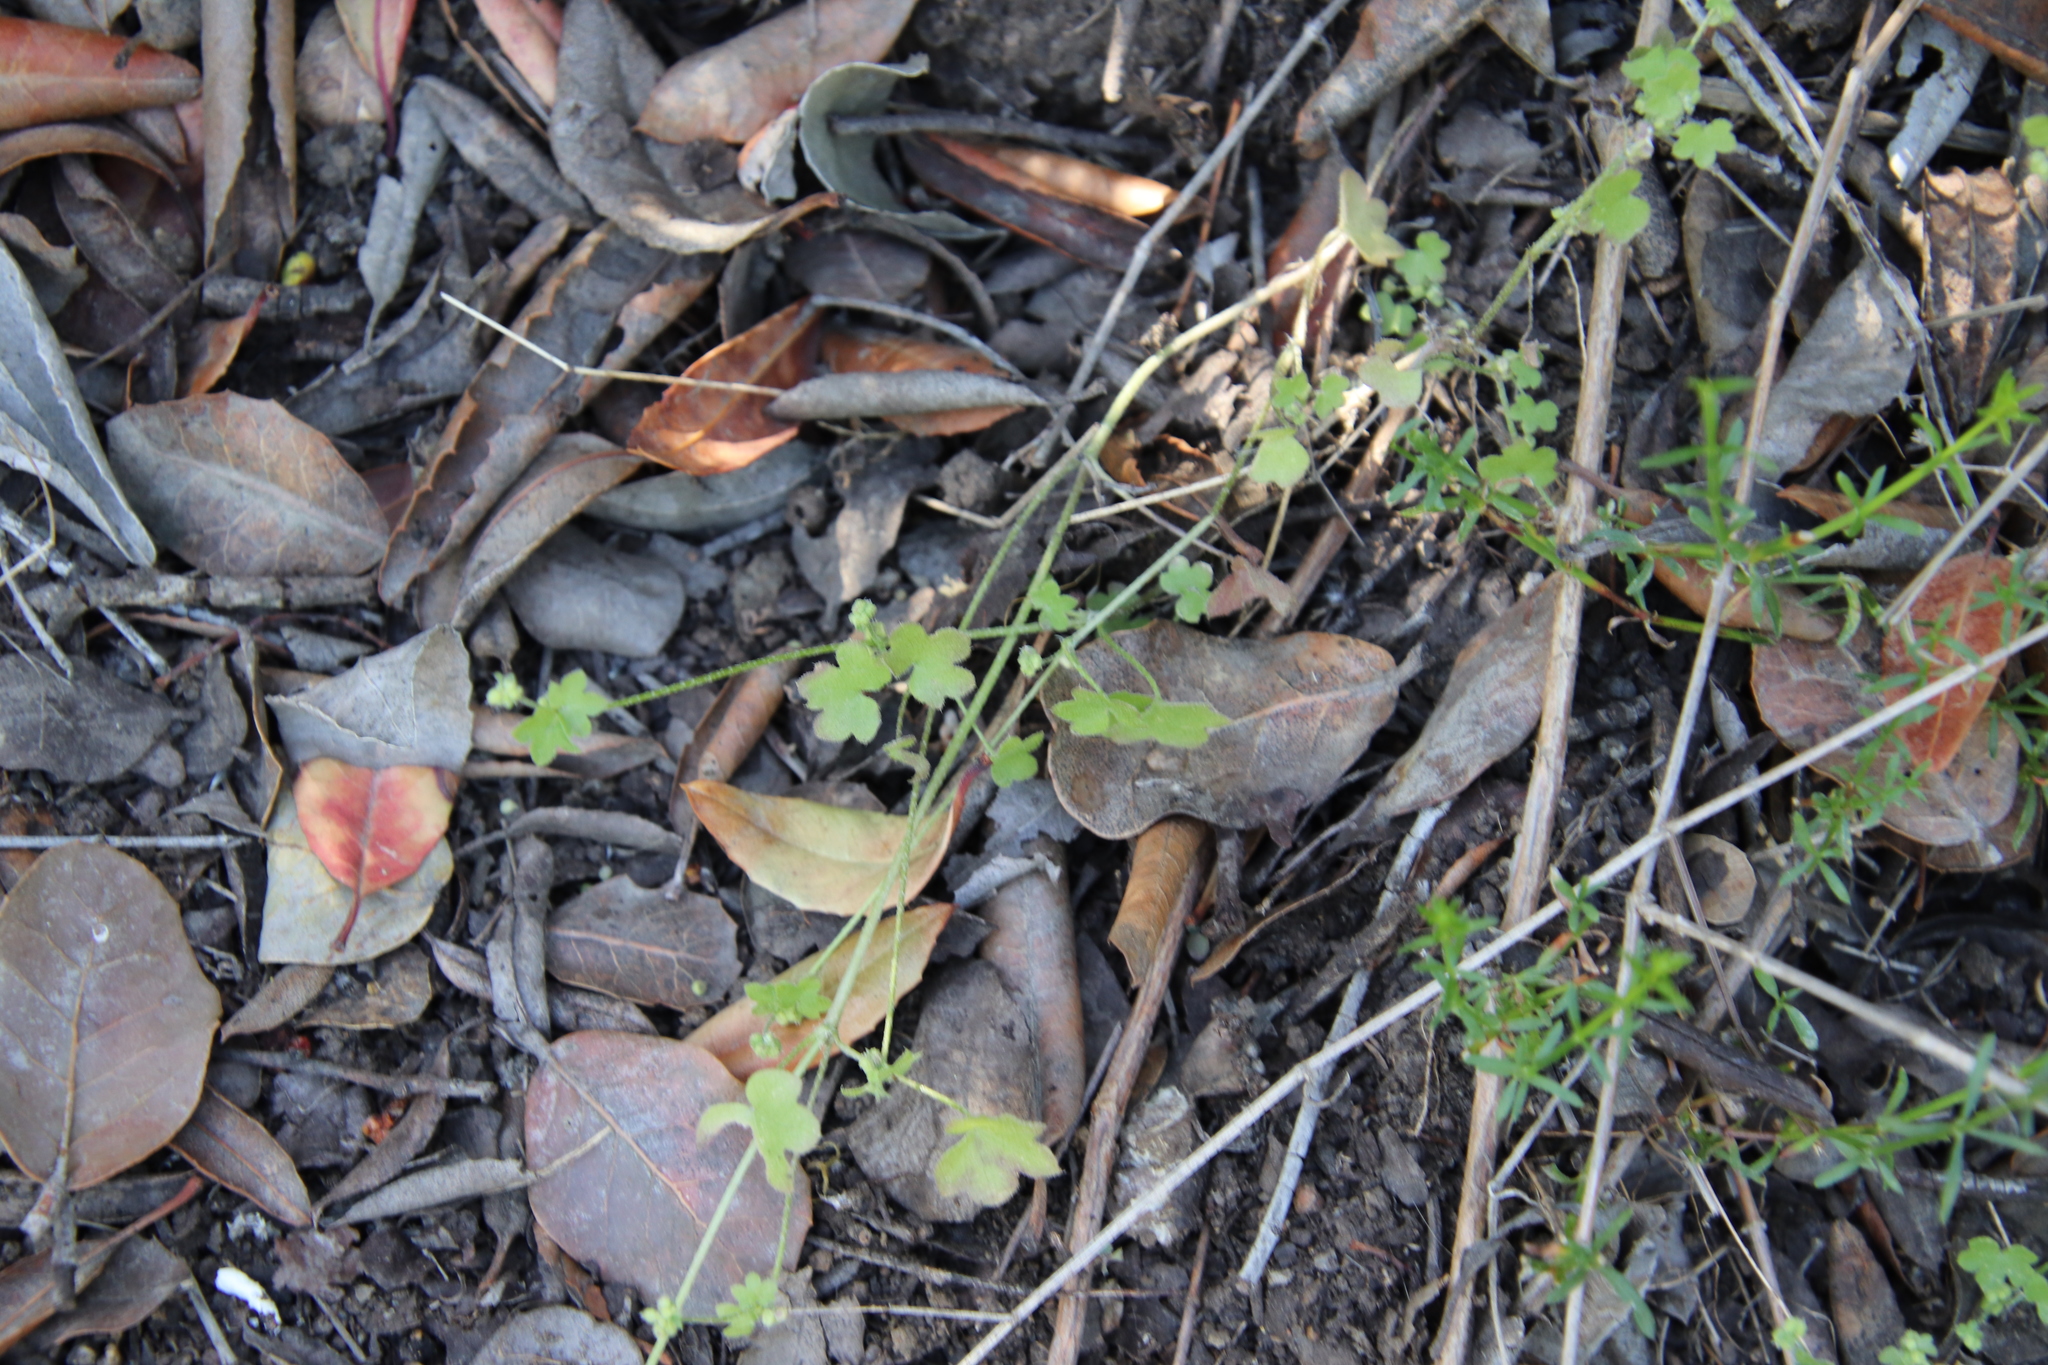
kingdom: Plantae
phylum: Tracheophyta
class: Magnoliopsida
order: Apiales
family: Apiaceae
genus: Bowlesia
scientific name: Bowlesia incana
